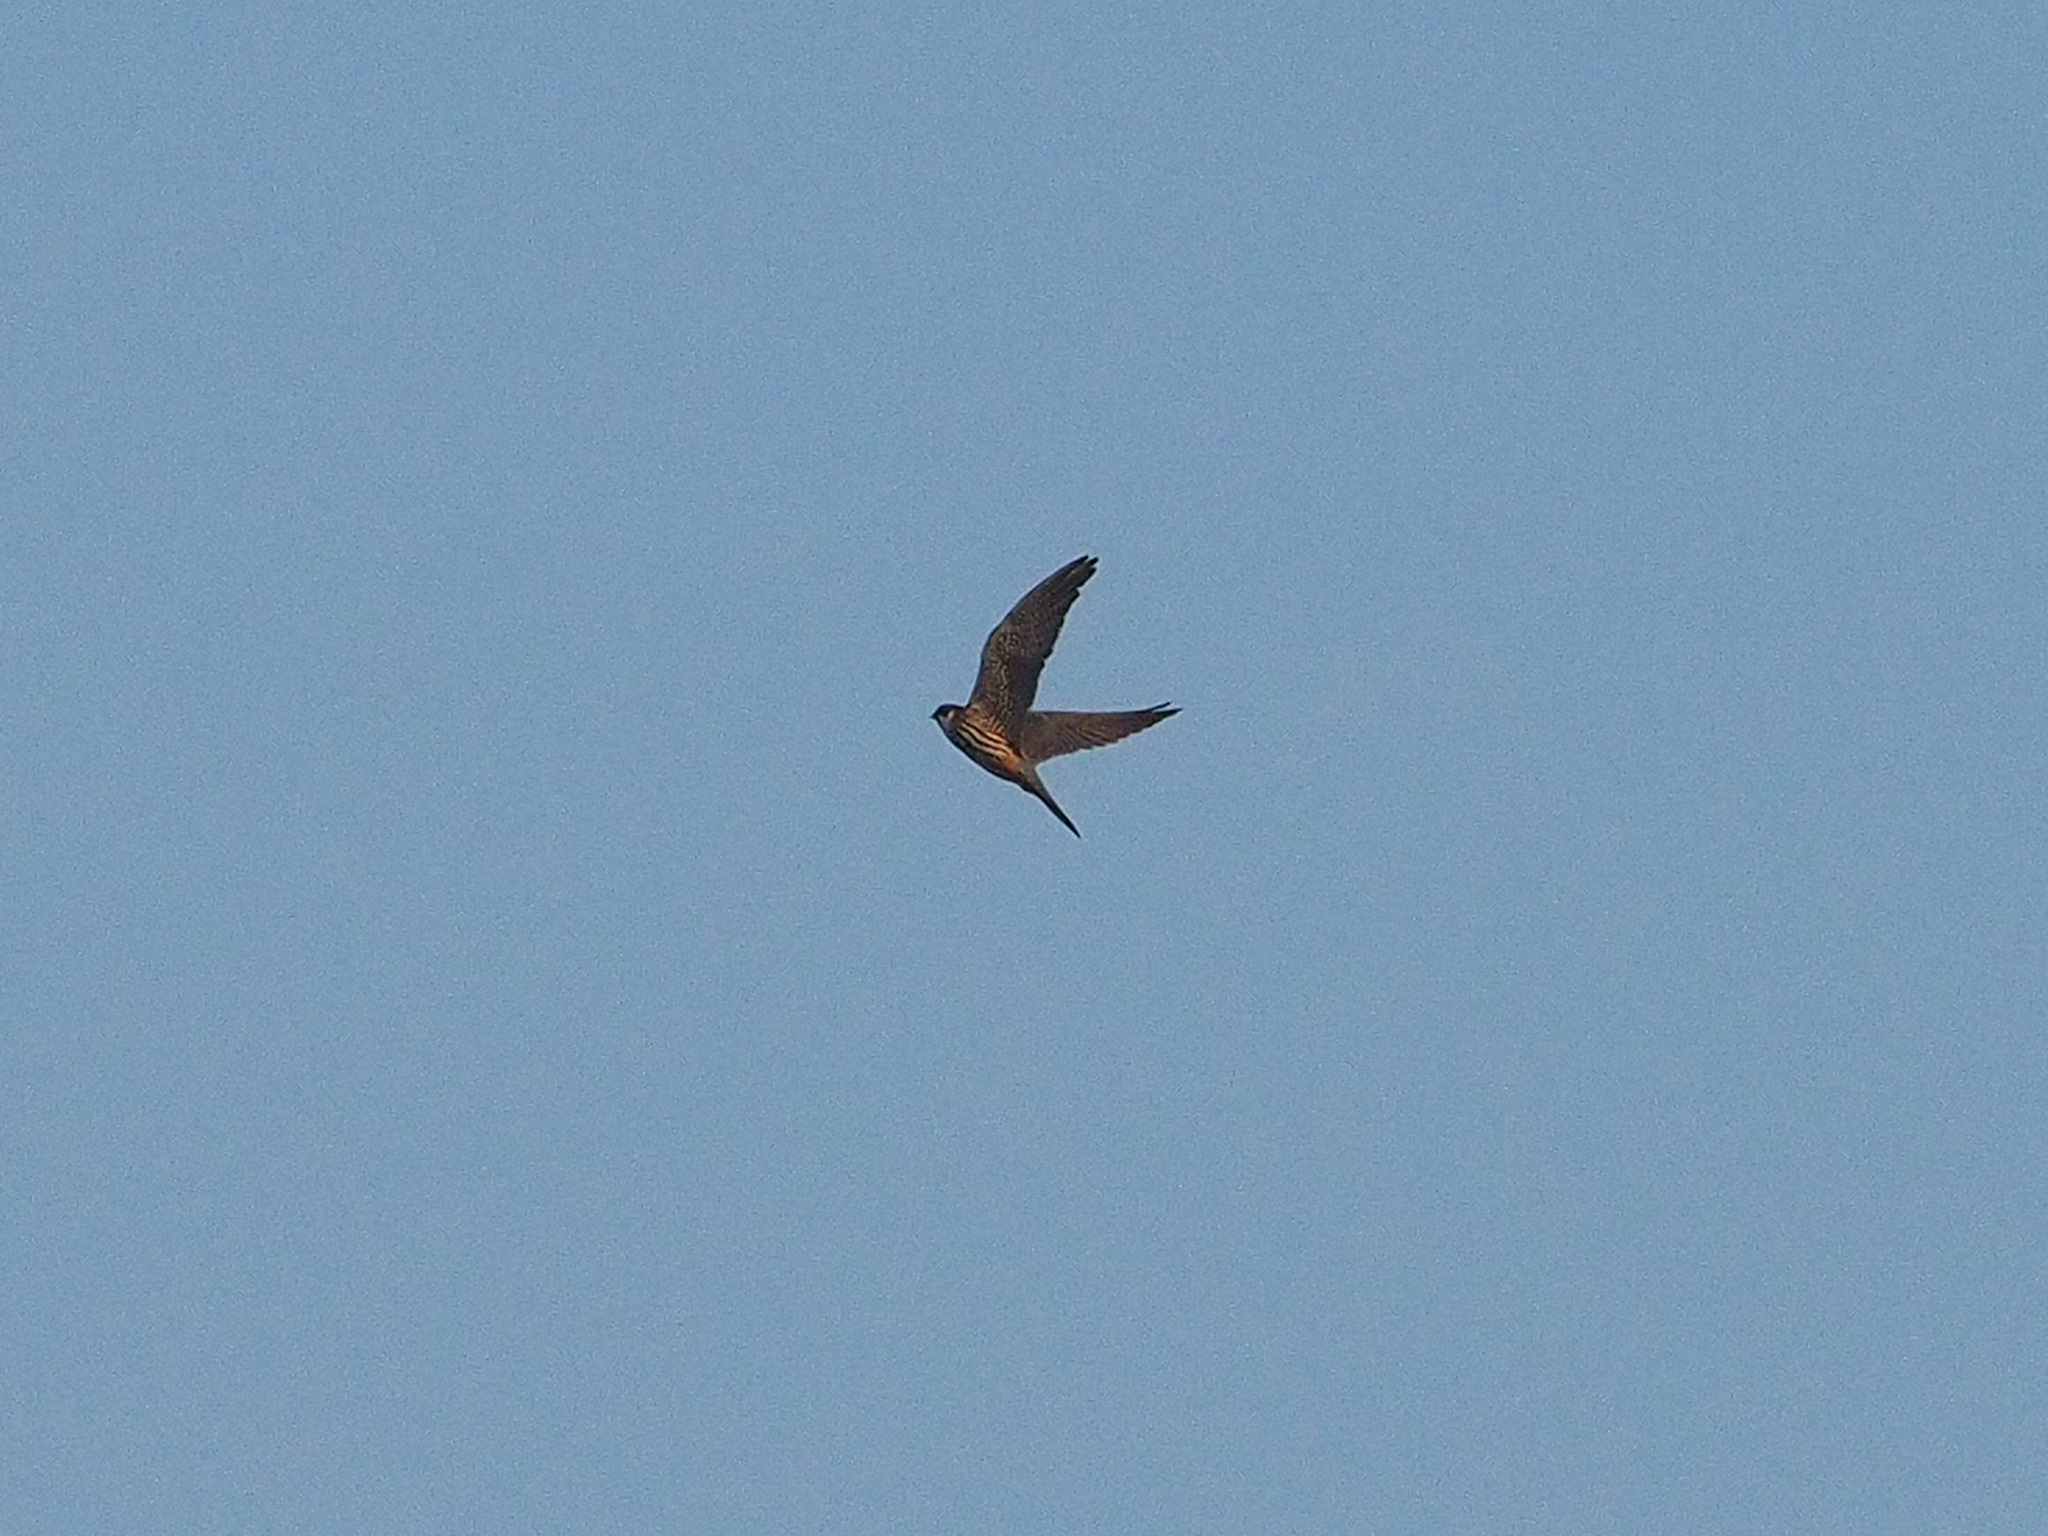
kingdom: Animalia
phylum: Chordata
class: Aves
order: Falconiformes
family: Falconidae
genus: Falco
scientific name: Falco subbuteo
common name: Eurasian hobby
